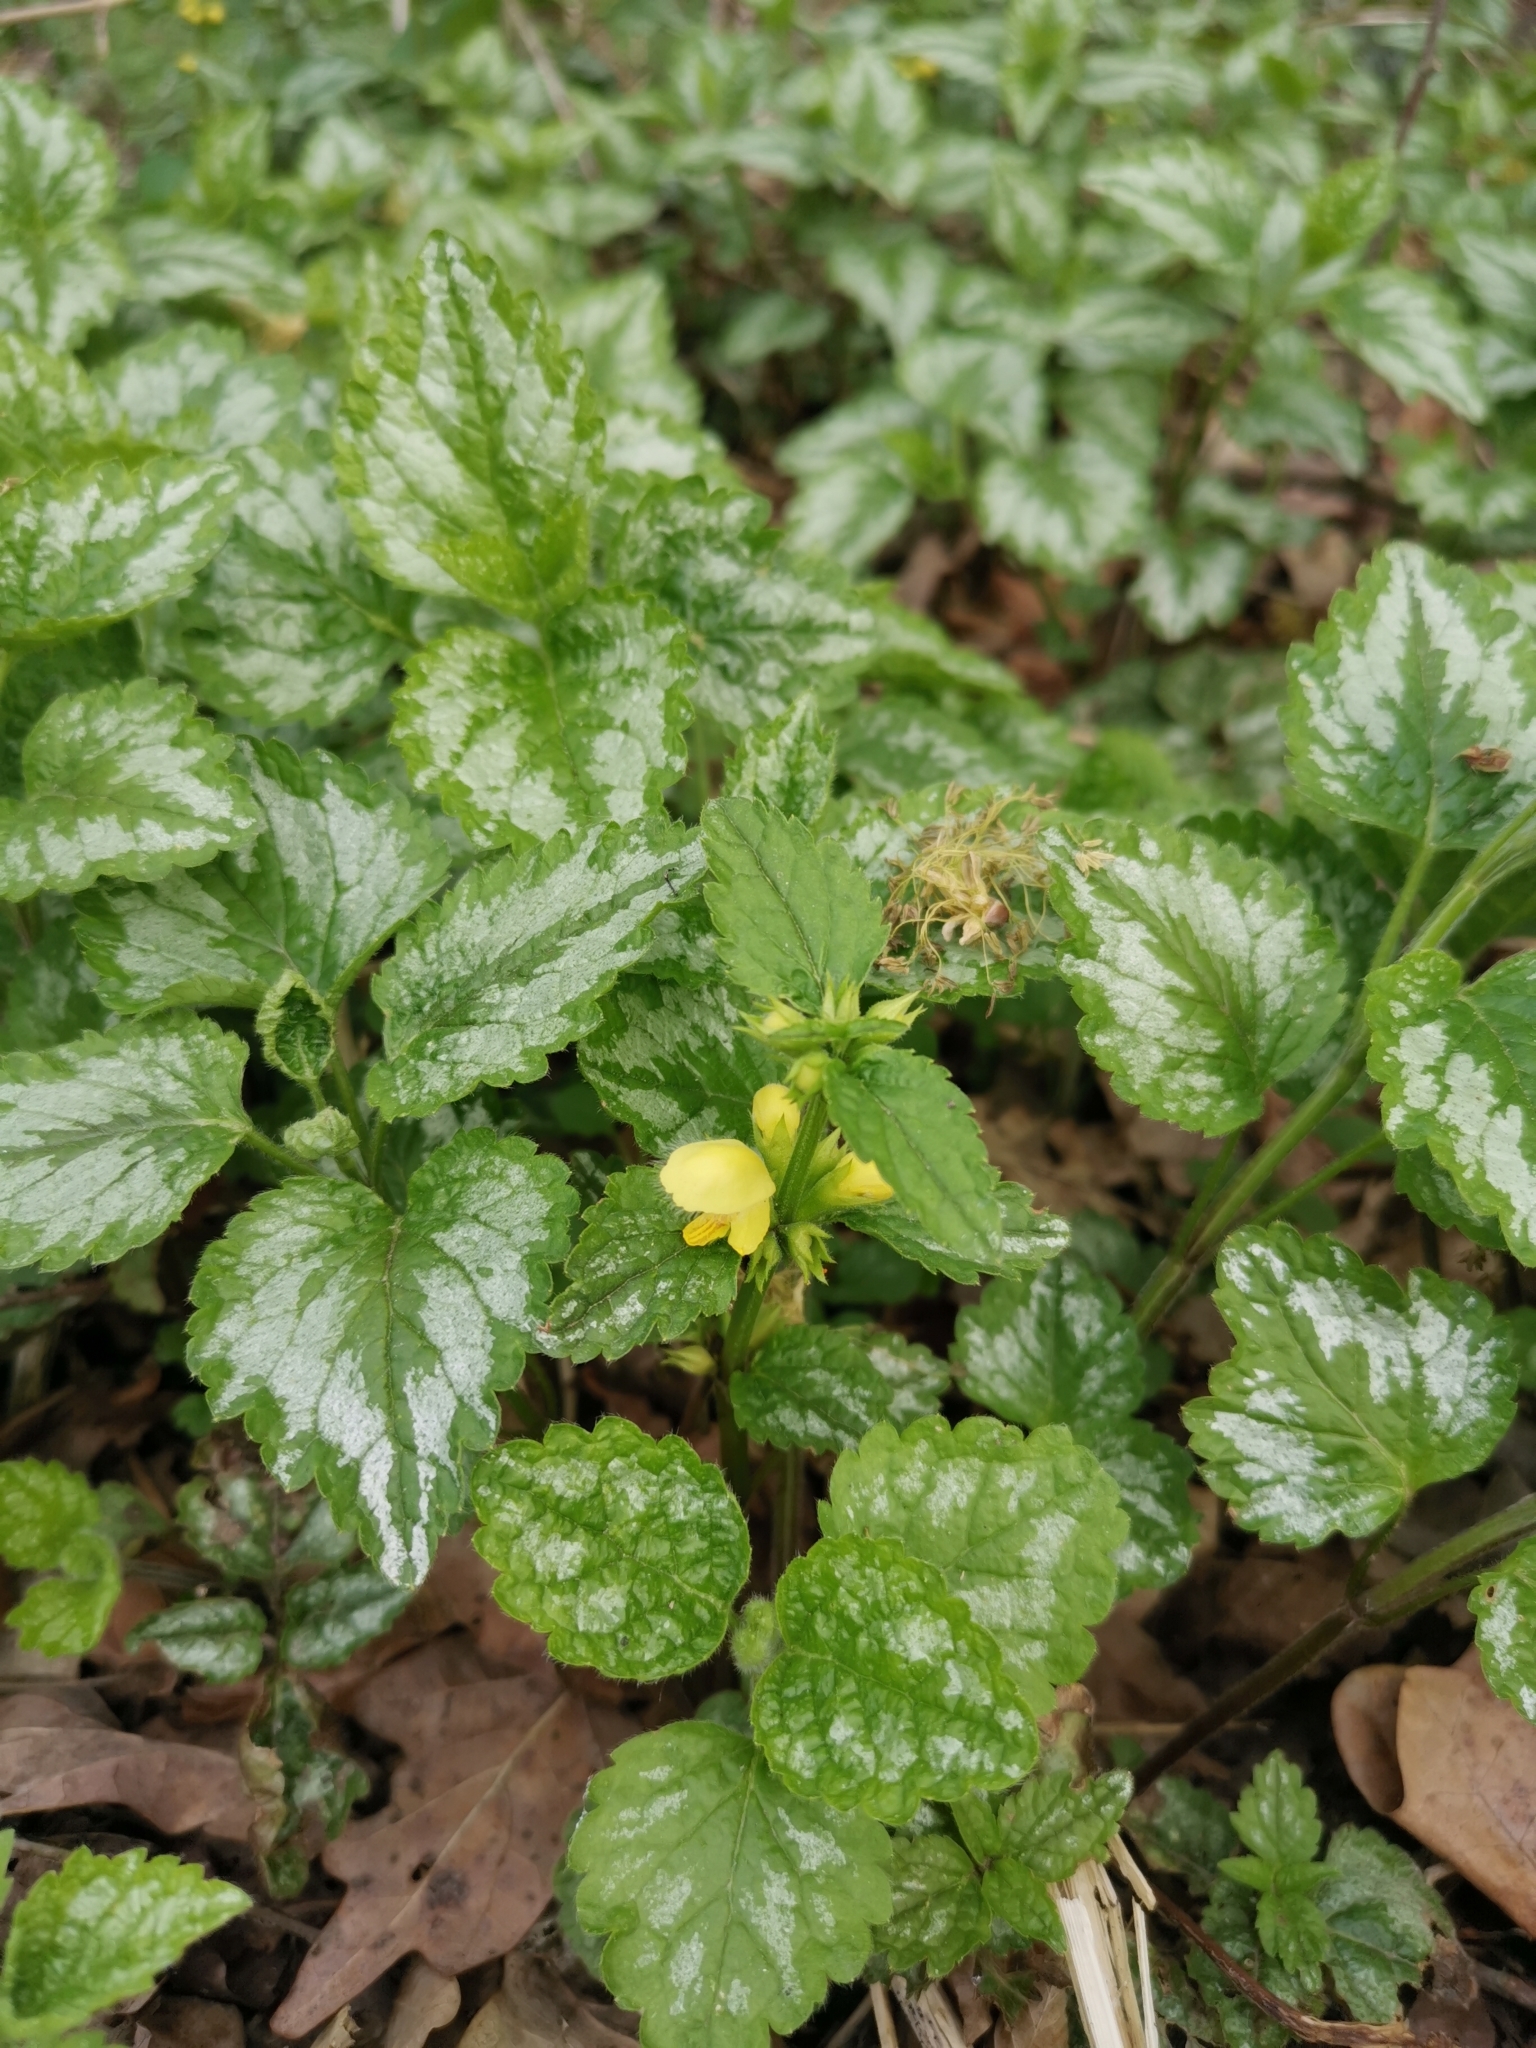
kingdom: Plantae
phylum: Tracheophyta
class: Magnoliopsida
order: Lamiales
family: Lamiaceae
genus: Lamium
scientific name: Lamium galeobdolon
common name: Yellow archangel
